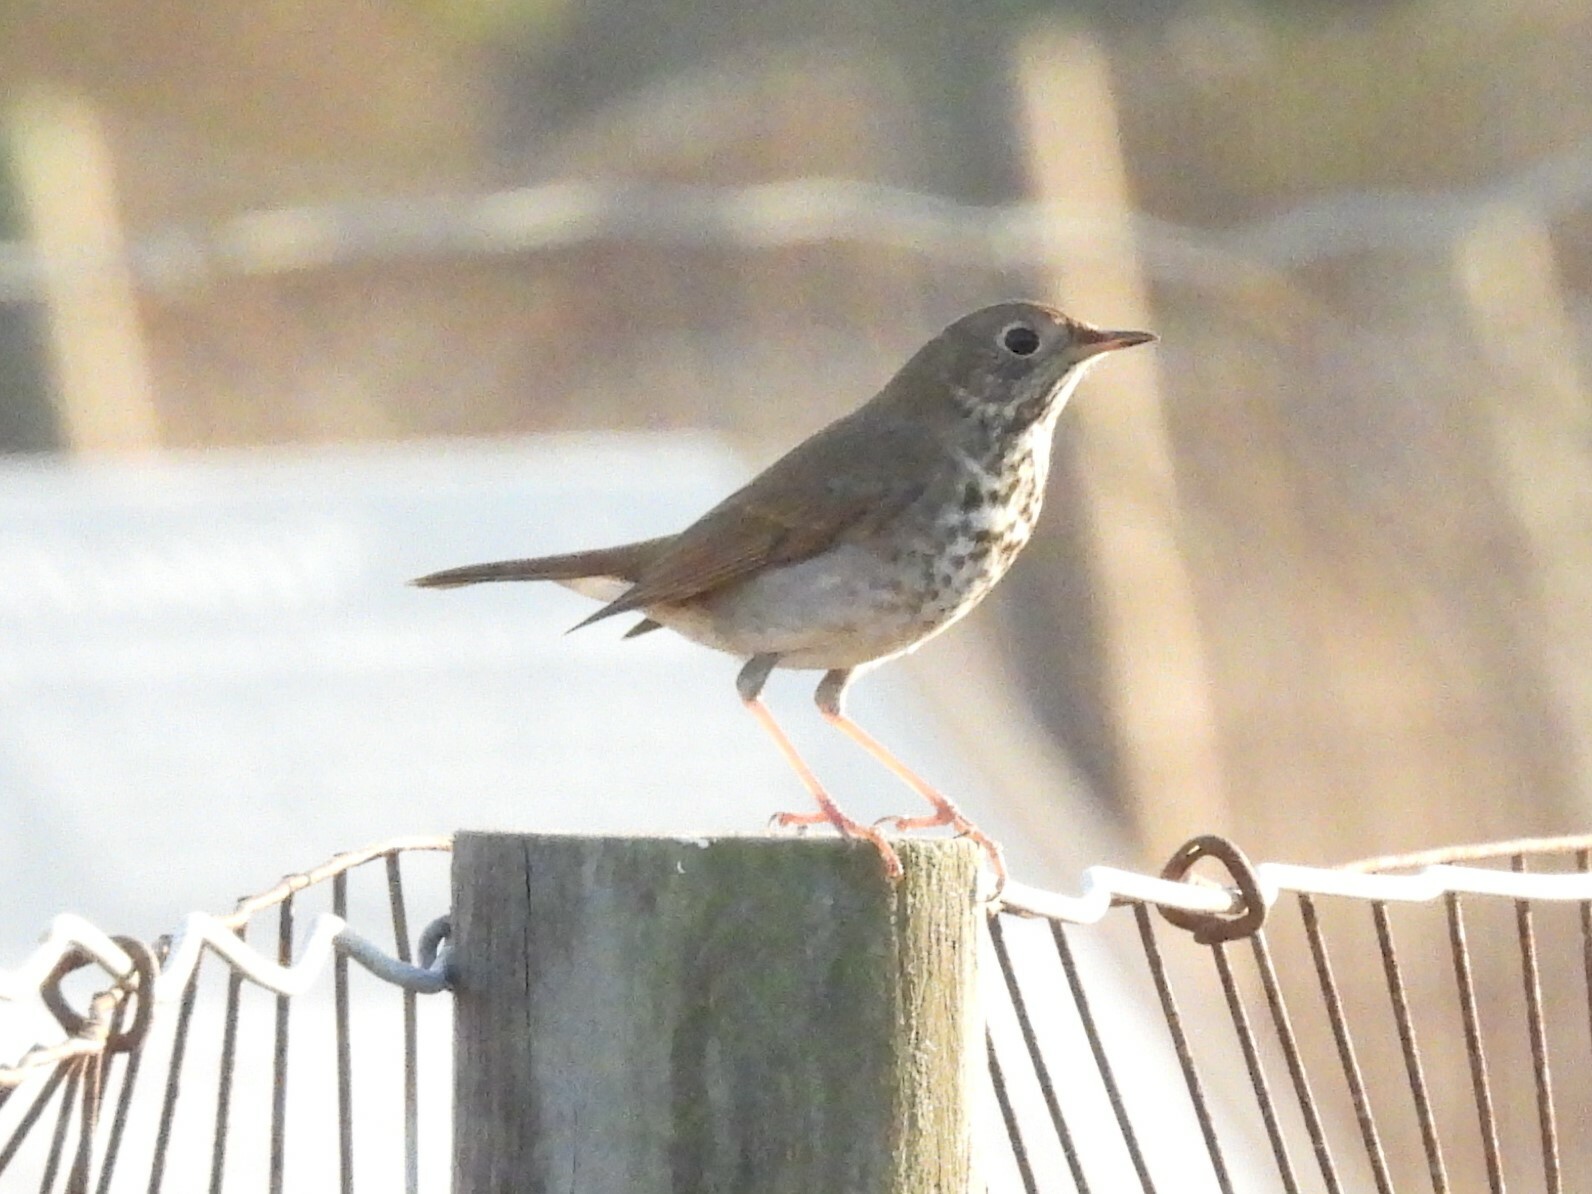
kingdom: Animalia
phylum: Chordata
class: Aves
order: Passeriformes
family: Turdidae
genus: Catharus
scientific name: Catharus guttatus
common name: Hermit thrush
